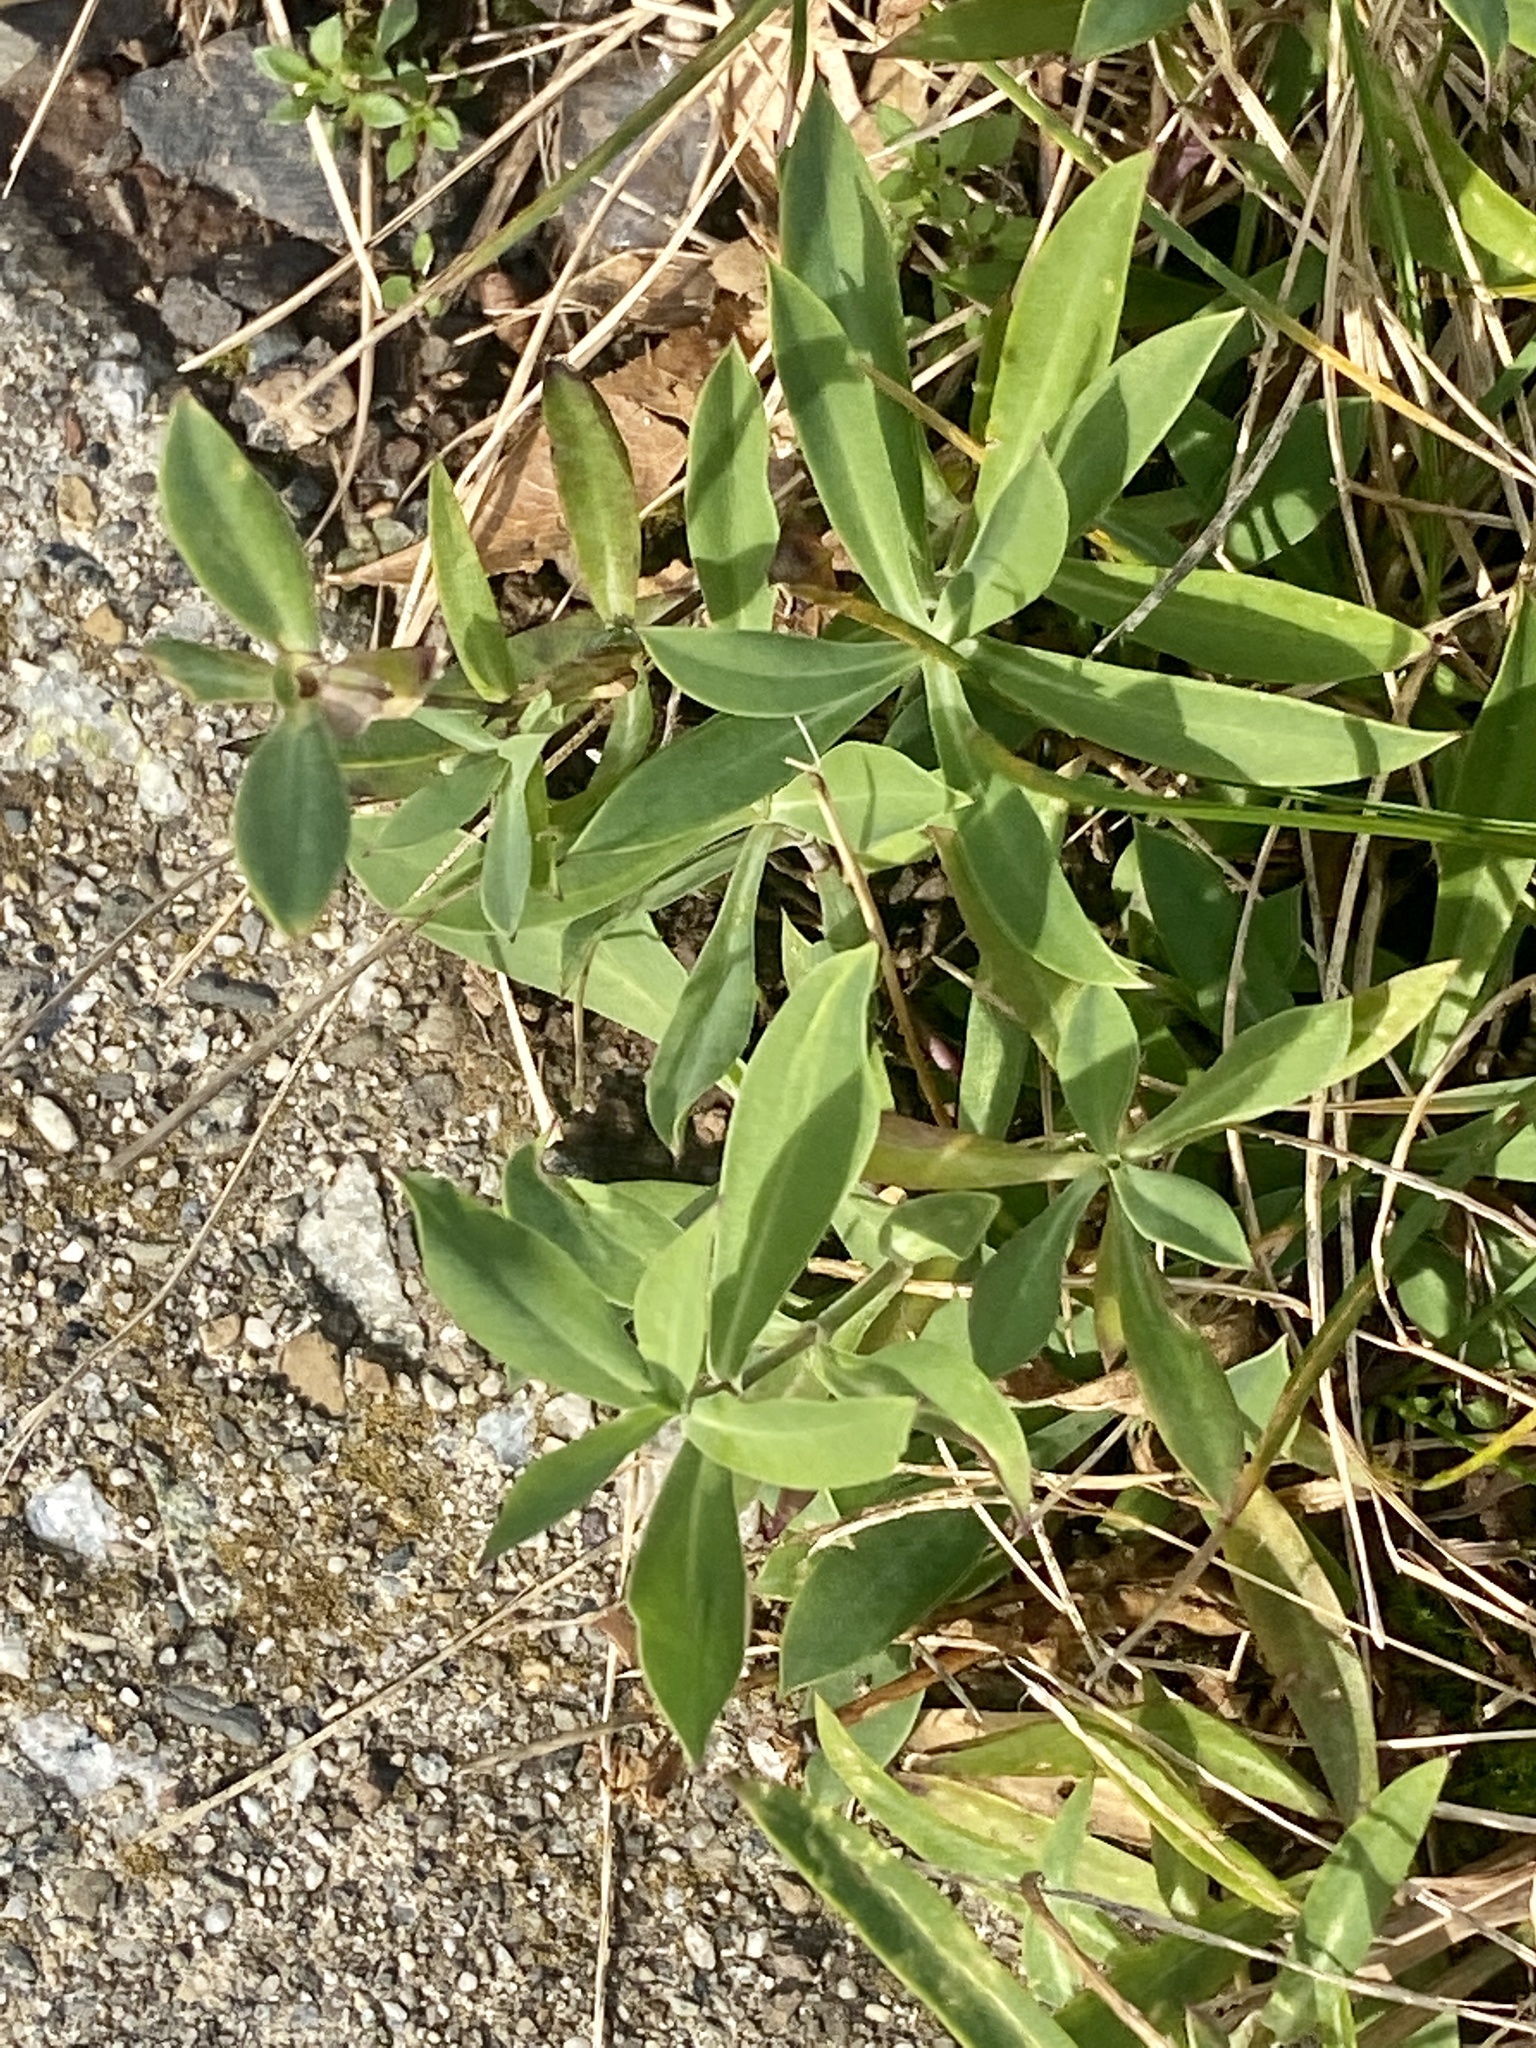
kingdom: Plantae
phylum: Tracheophyta
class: Magnoliopsida
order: Caryophyllales
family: Caryophyllaceae
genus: Silene
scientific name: Silene vulgaris
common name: Bladder campion
